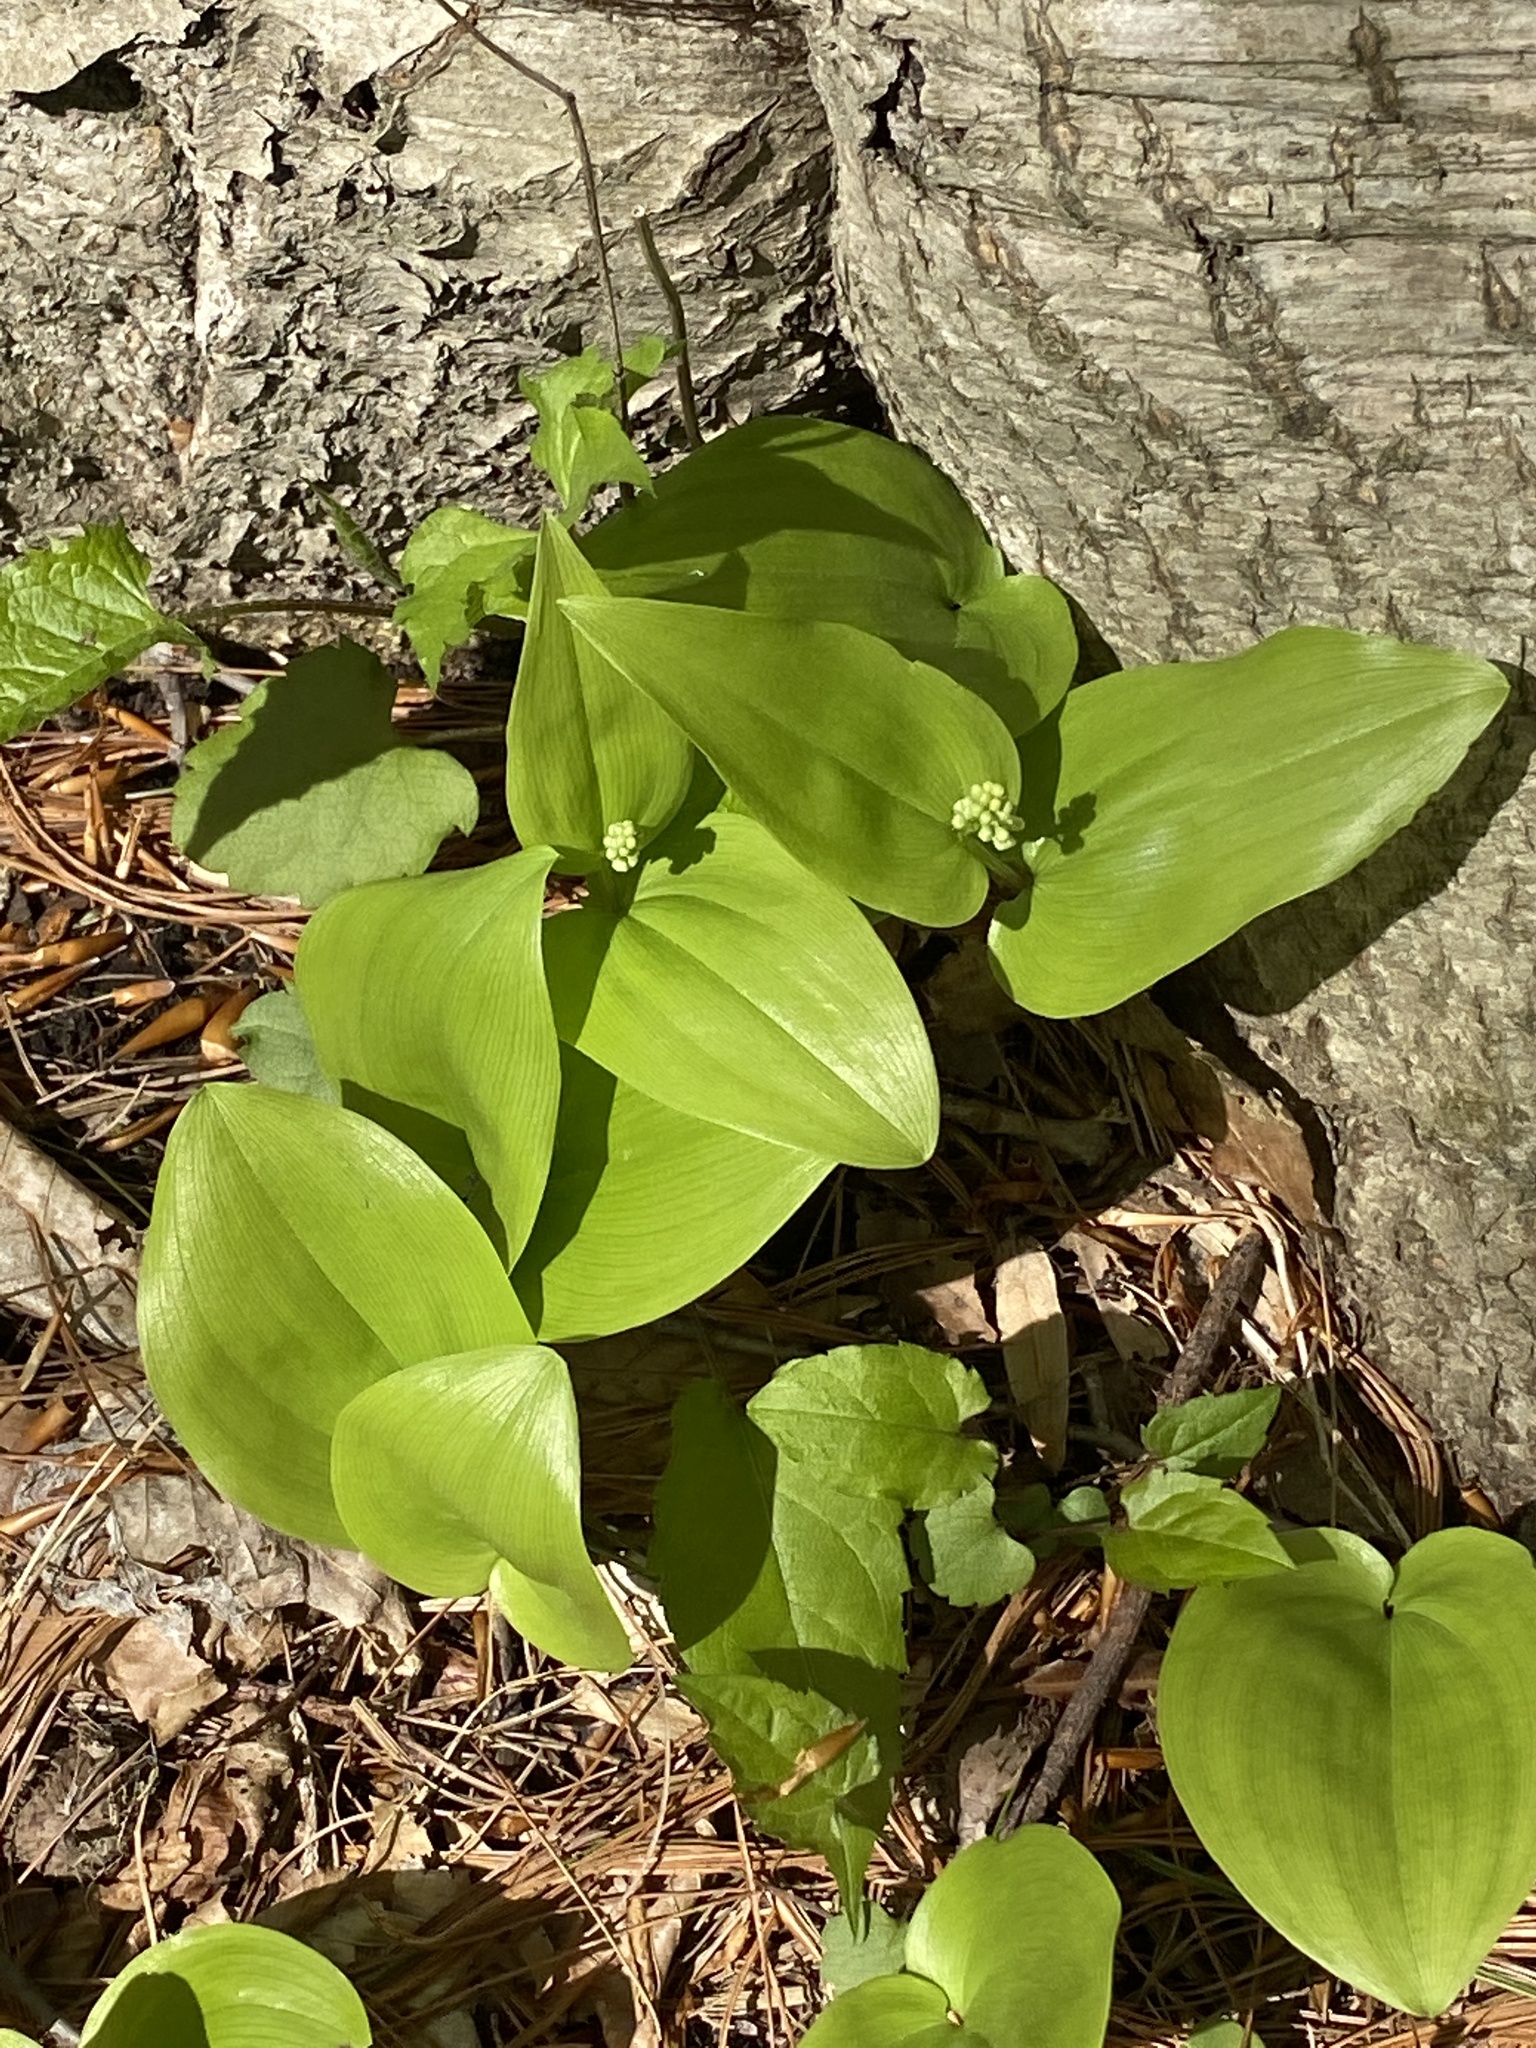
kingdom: Plantae
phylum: Tracheophyta
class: Liliopsida
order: Asparagales
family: Asparagaceae
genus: Maianthemum
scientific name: Maianthemum canadense
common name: False lily-of-the-valley
